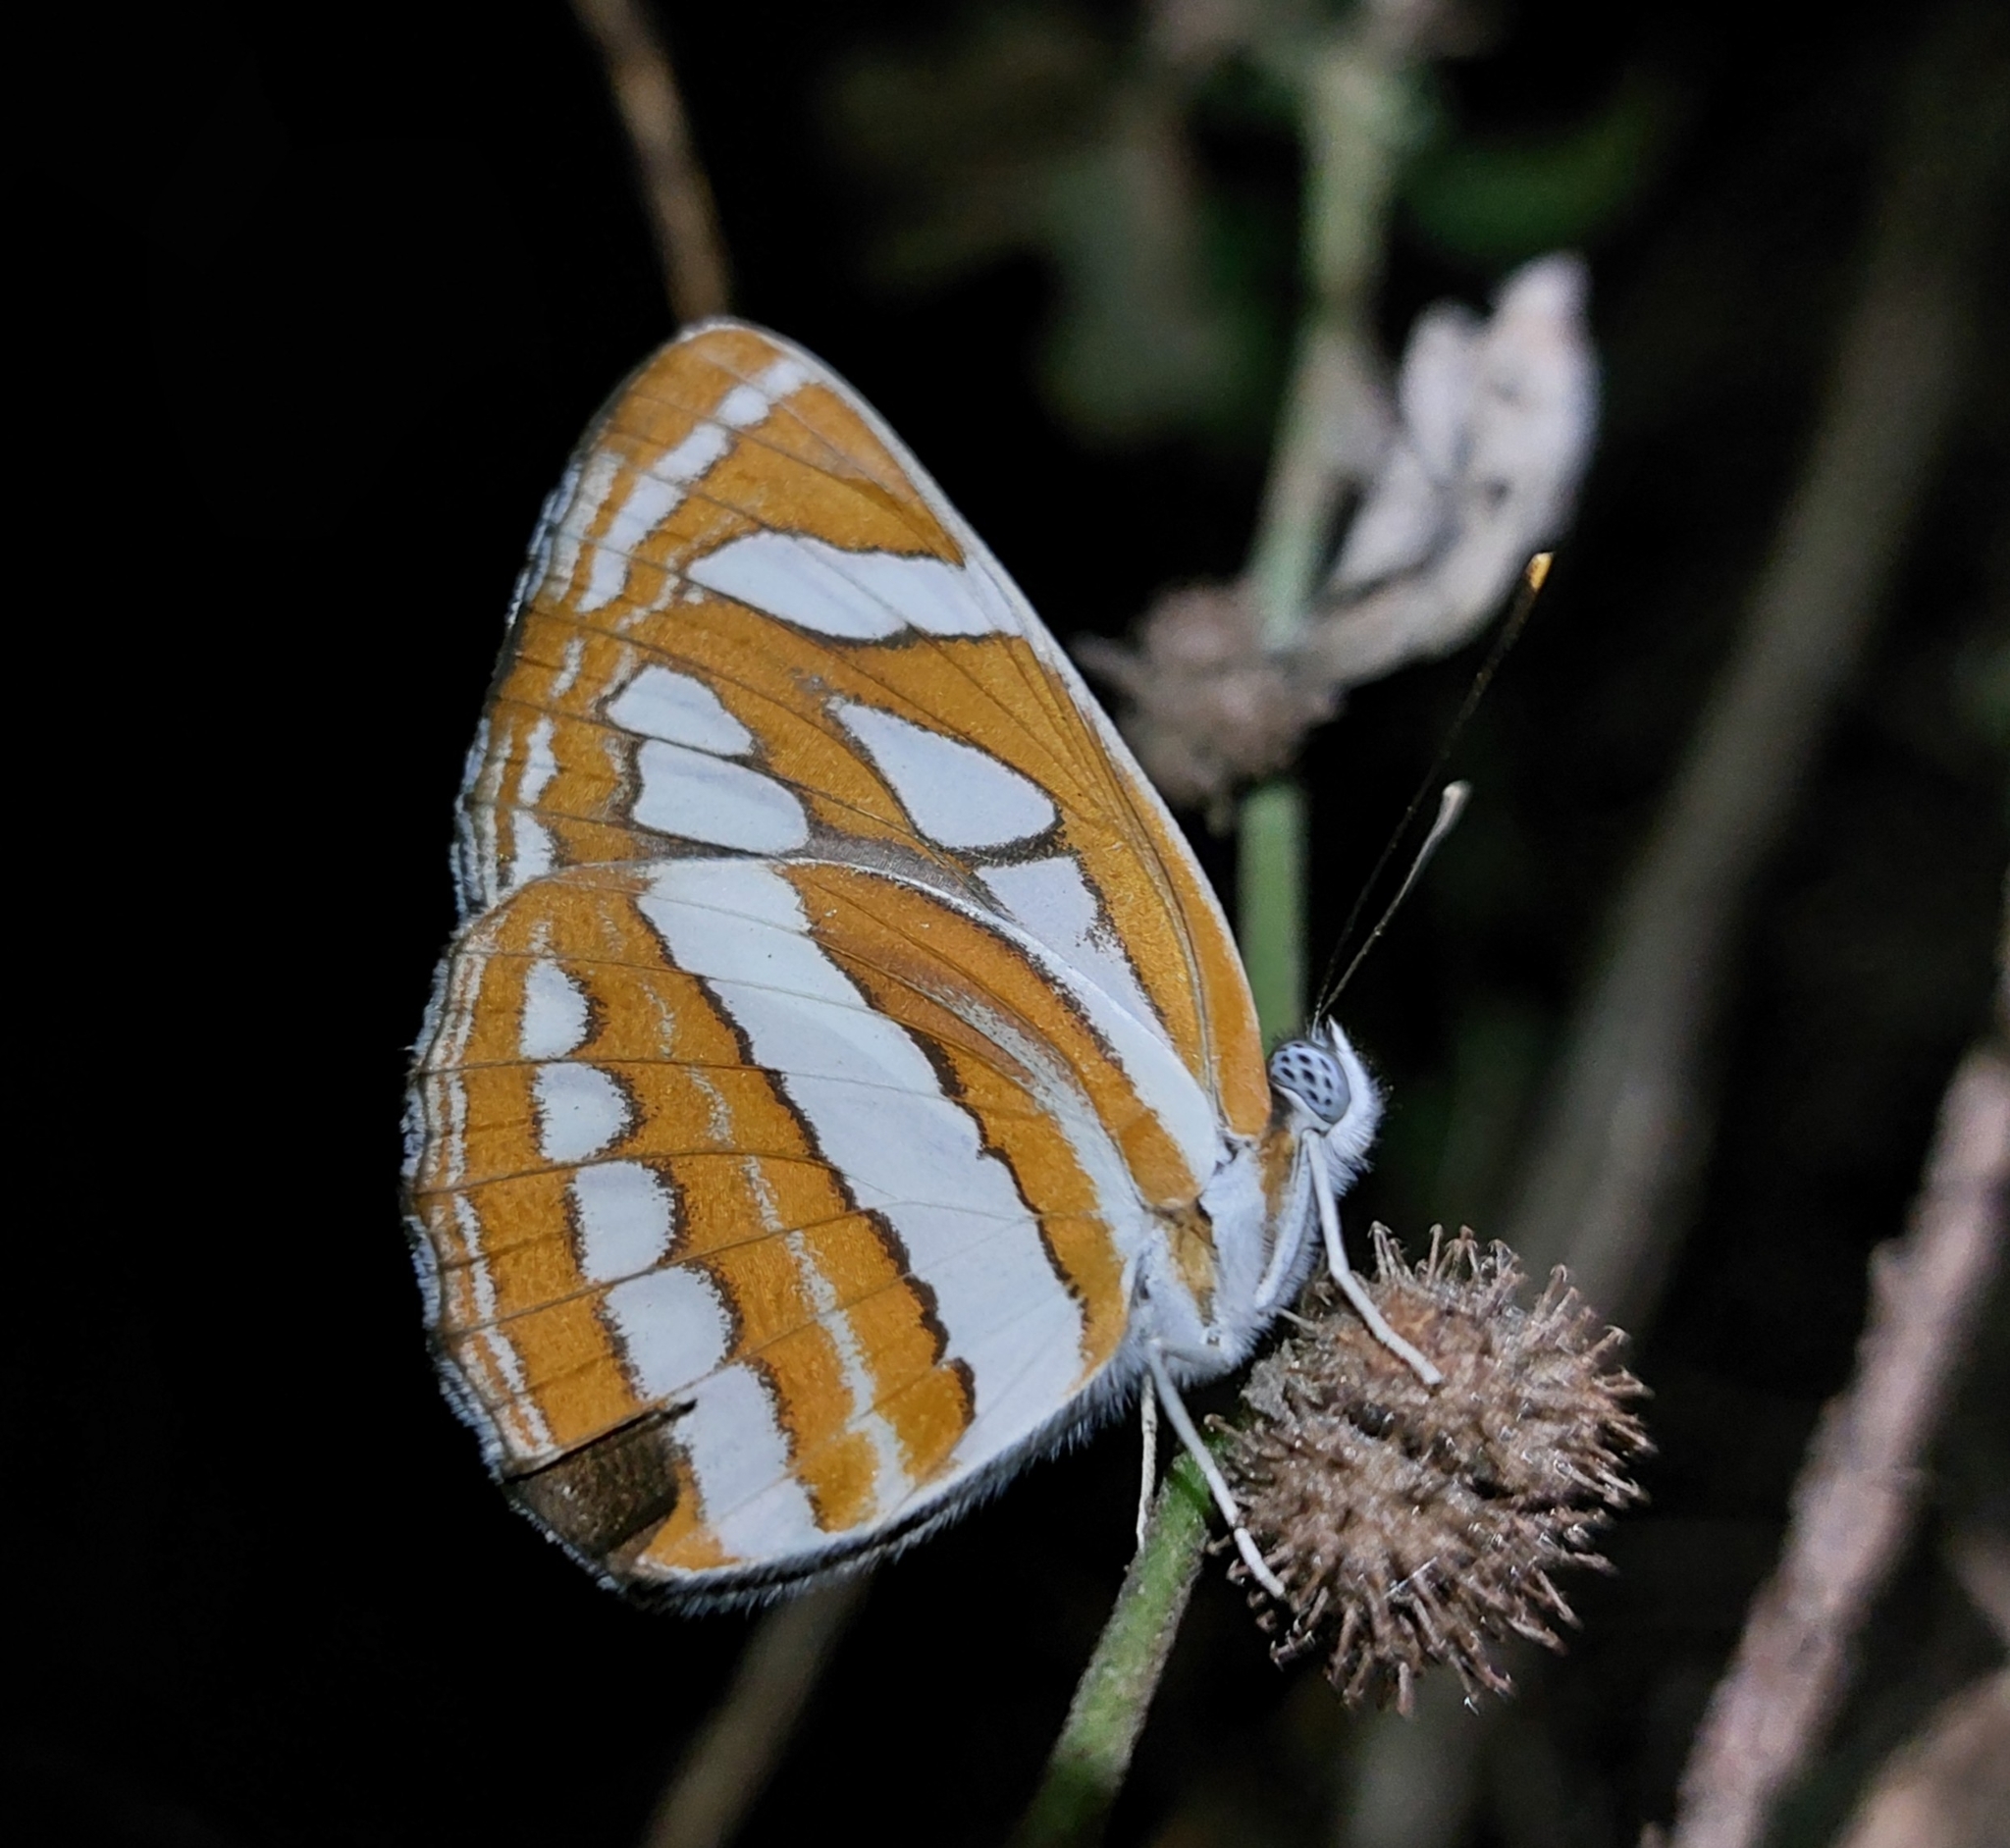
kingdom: Animalia
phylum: Arthropoda
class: Insecta
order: Lepidoptera
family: Nymphalidae
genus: Neptis
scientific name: Neptis hylas
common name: Common sailer
